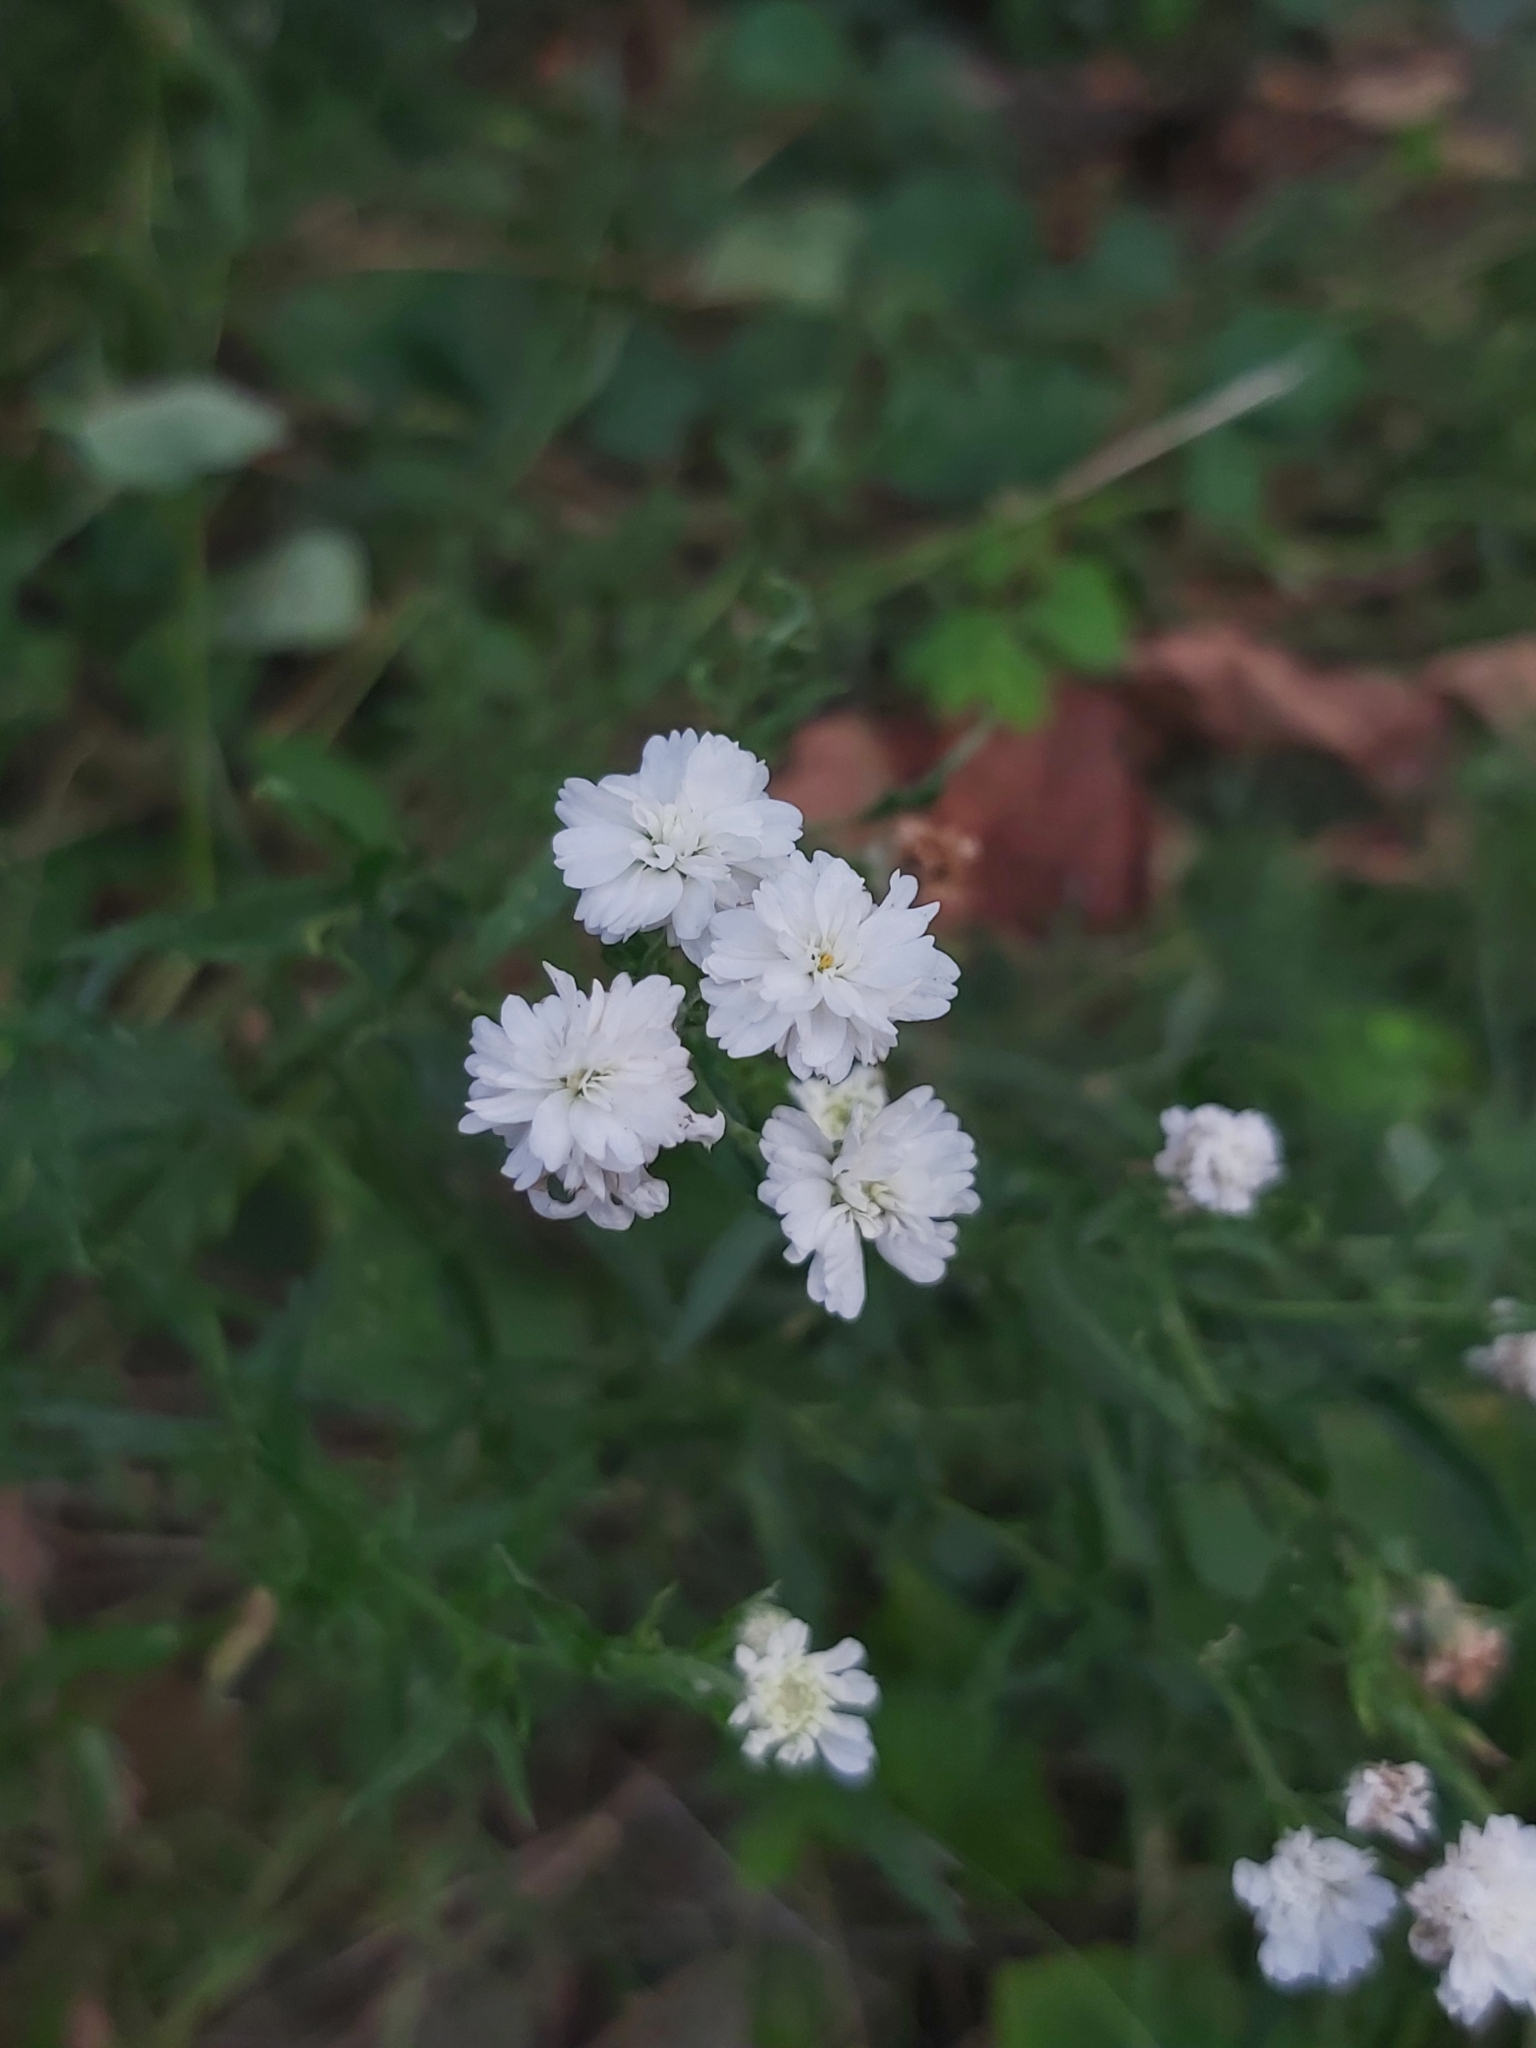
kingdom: Plantae
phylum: Tracheophyta
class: Magnoliopsida
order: Asterales
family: Asteraceae
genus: Achillea
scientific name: Achillea ptarmica
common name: Sneezeweed
